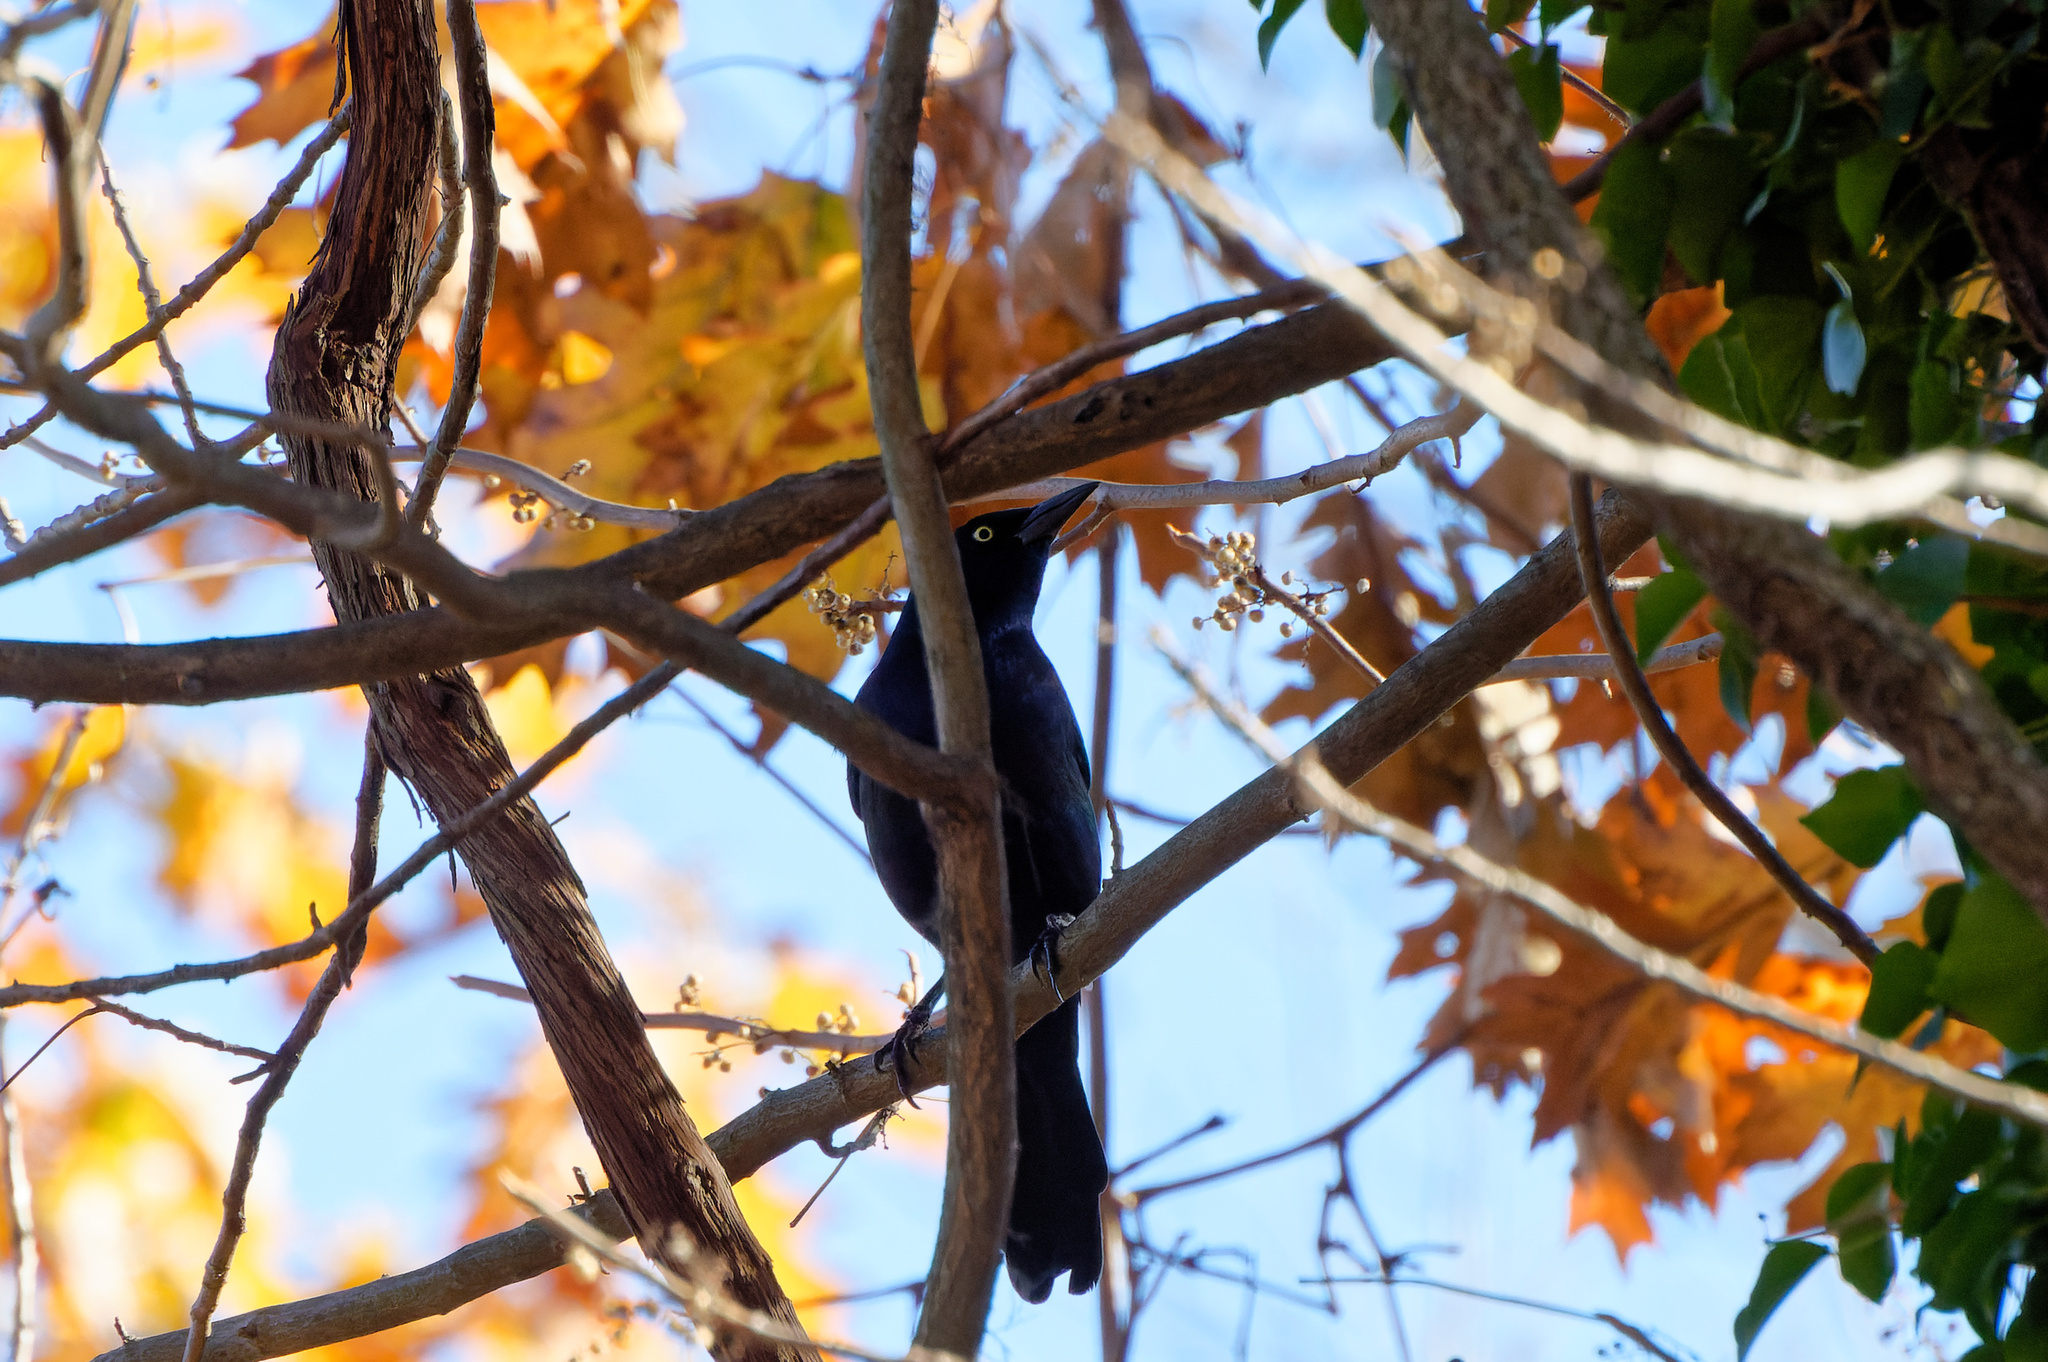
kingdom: Animalia
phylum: Chordata
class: Aves
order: Passeriformes
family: Icteridae
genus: Quiscalus
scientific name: Quiscalus quiscula
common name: Common grackle
